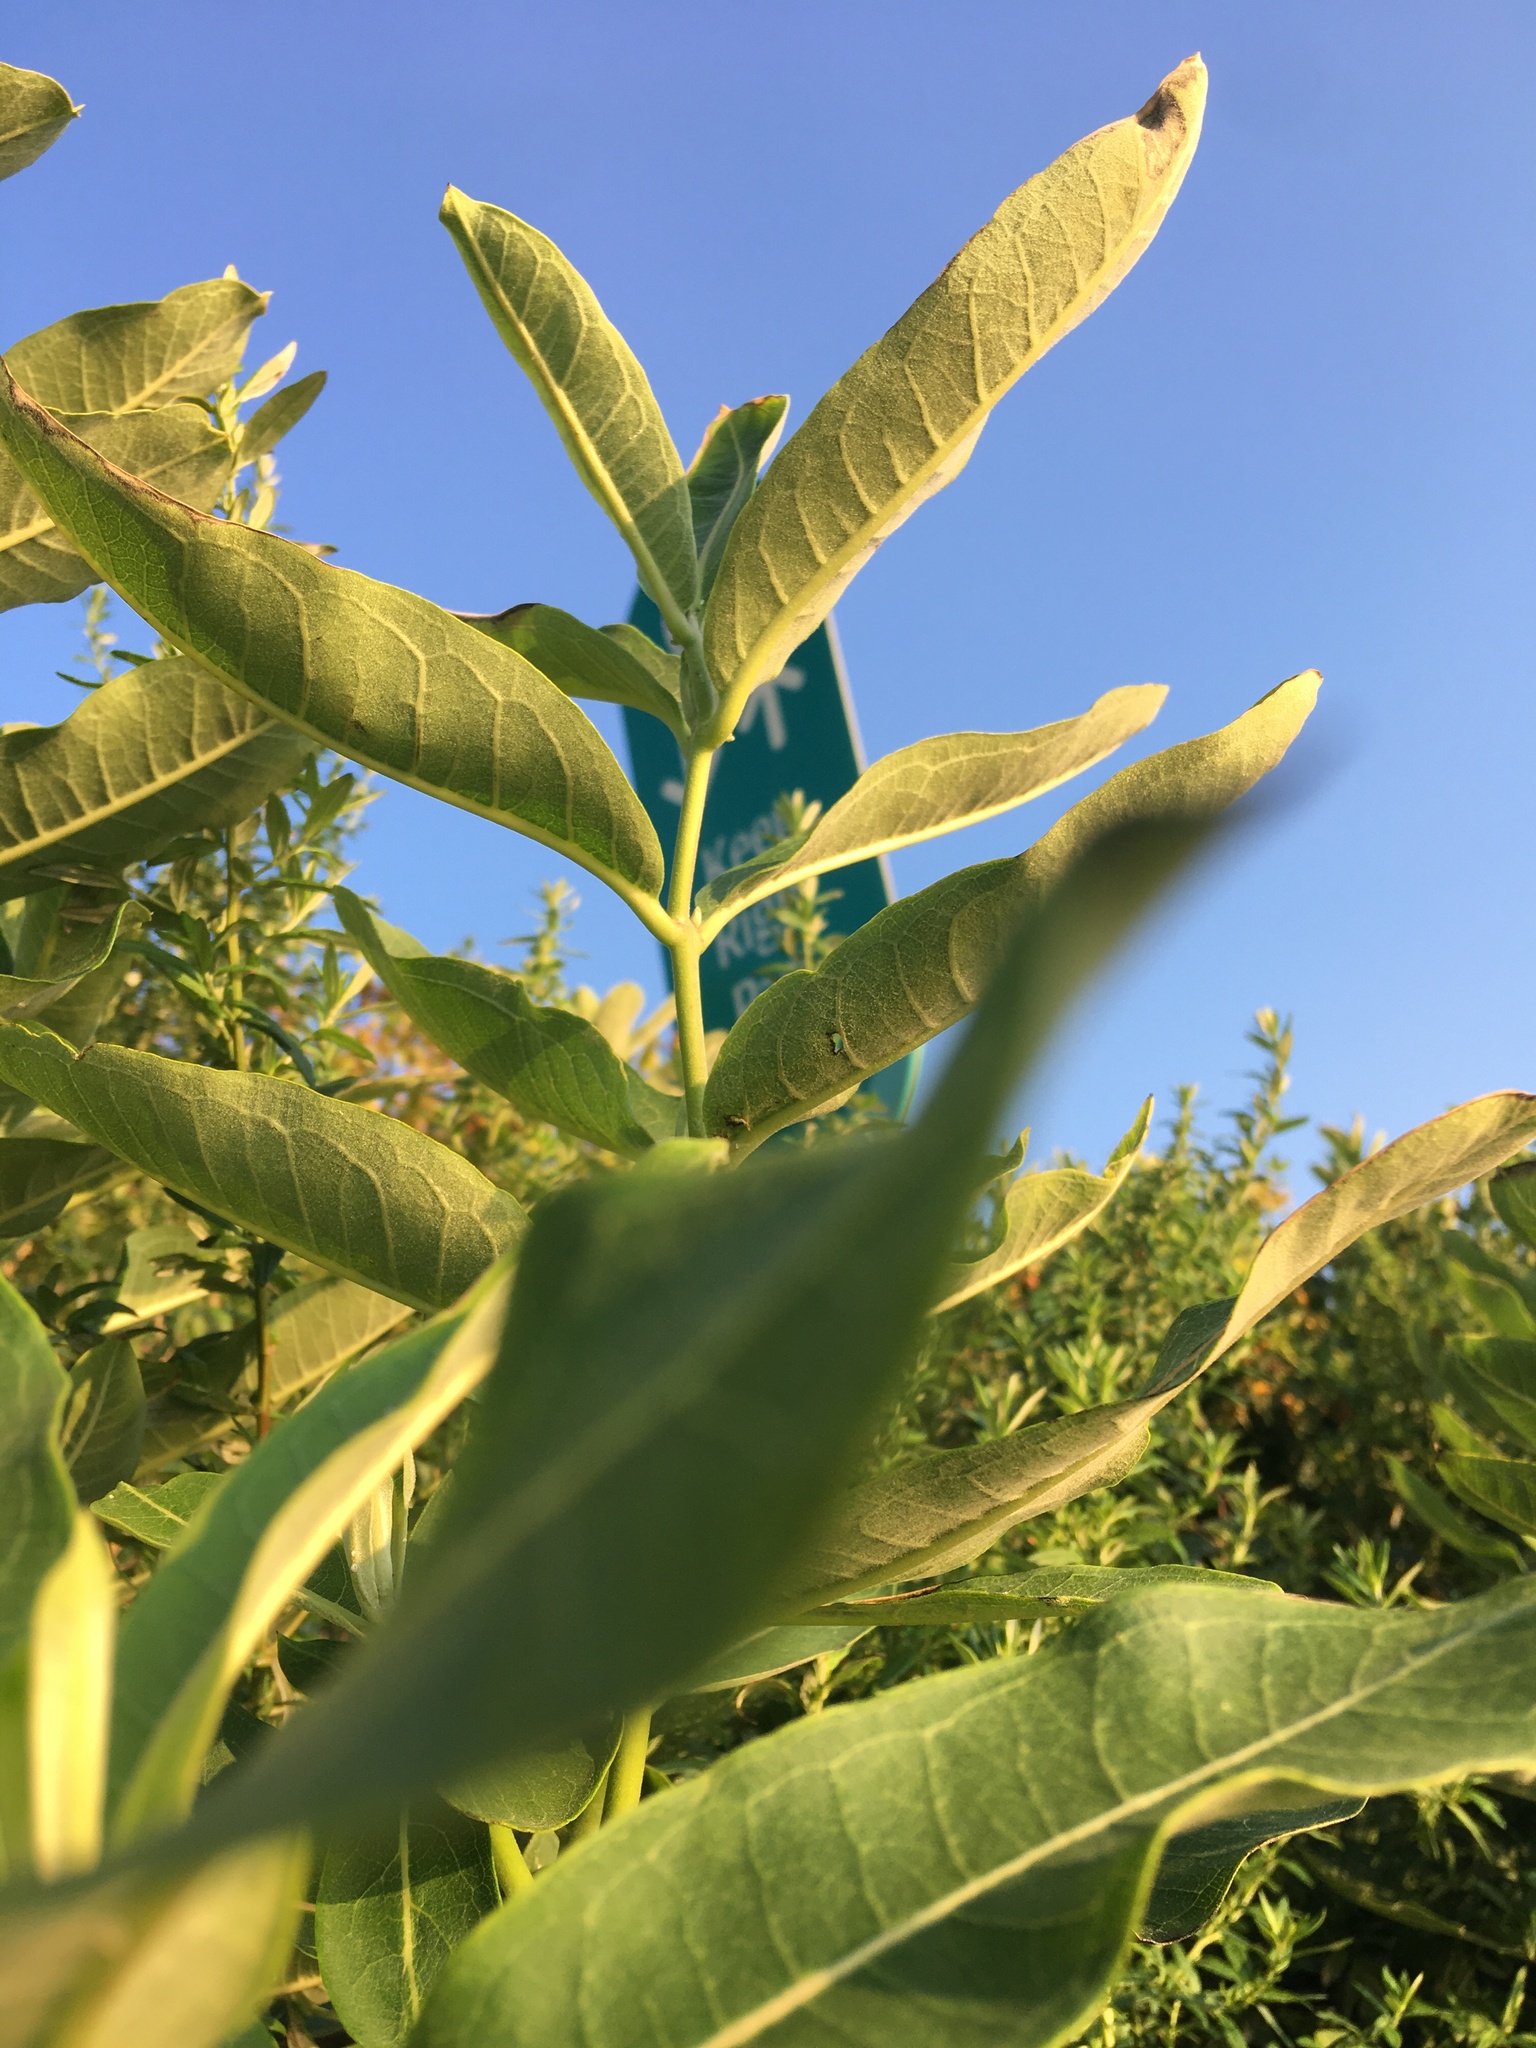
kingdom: Plantae
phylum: Tracheophyta
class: Magnoliopsida
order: Gentianales
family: Apocynaceae
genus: Asclepias
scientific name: Asclepias syriaca
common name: Common milkweed
